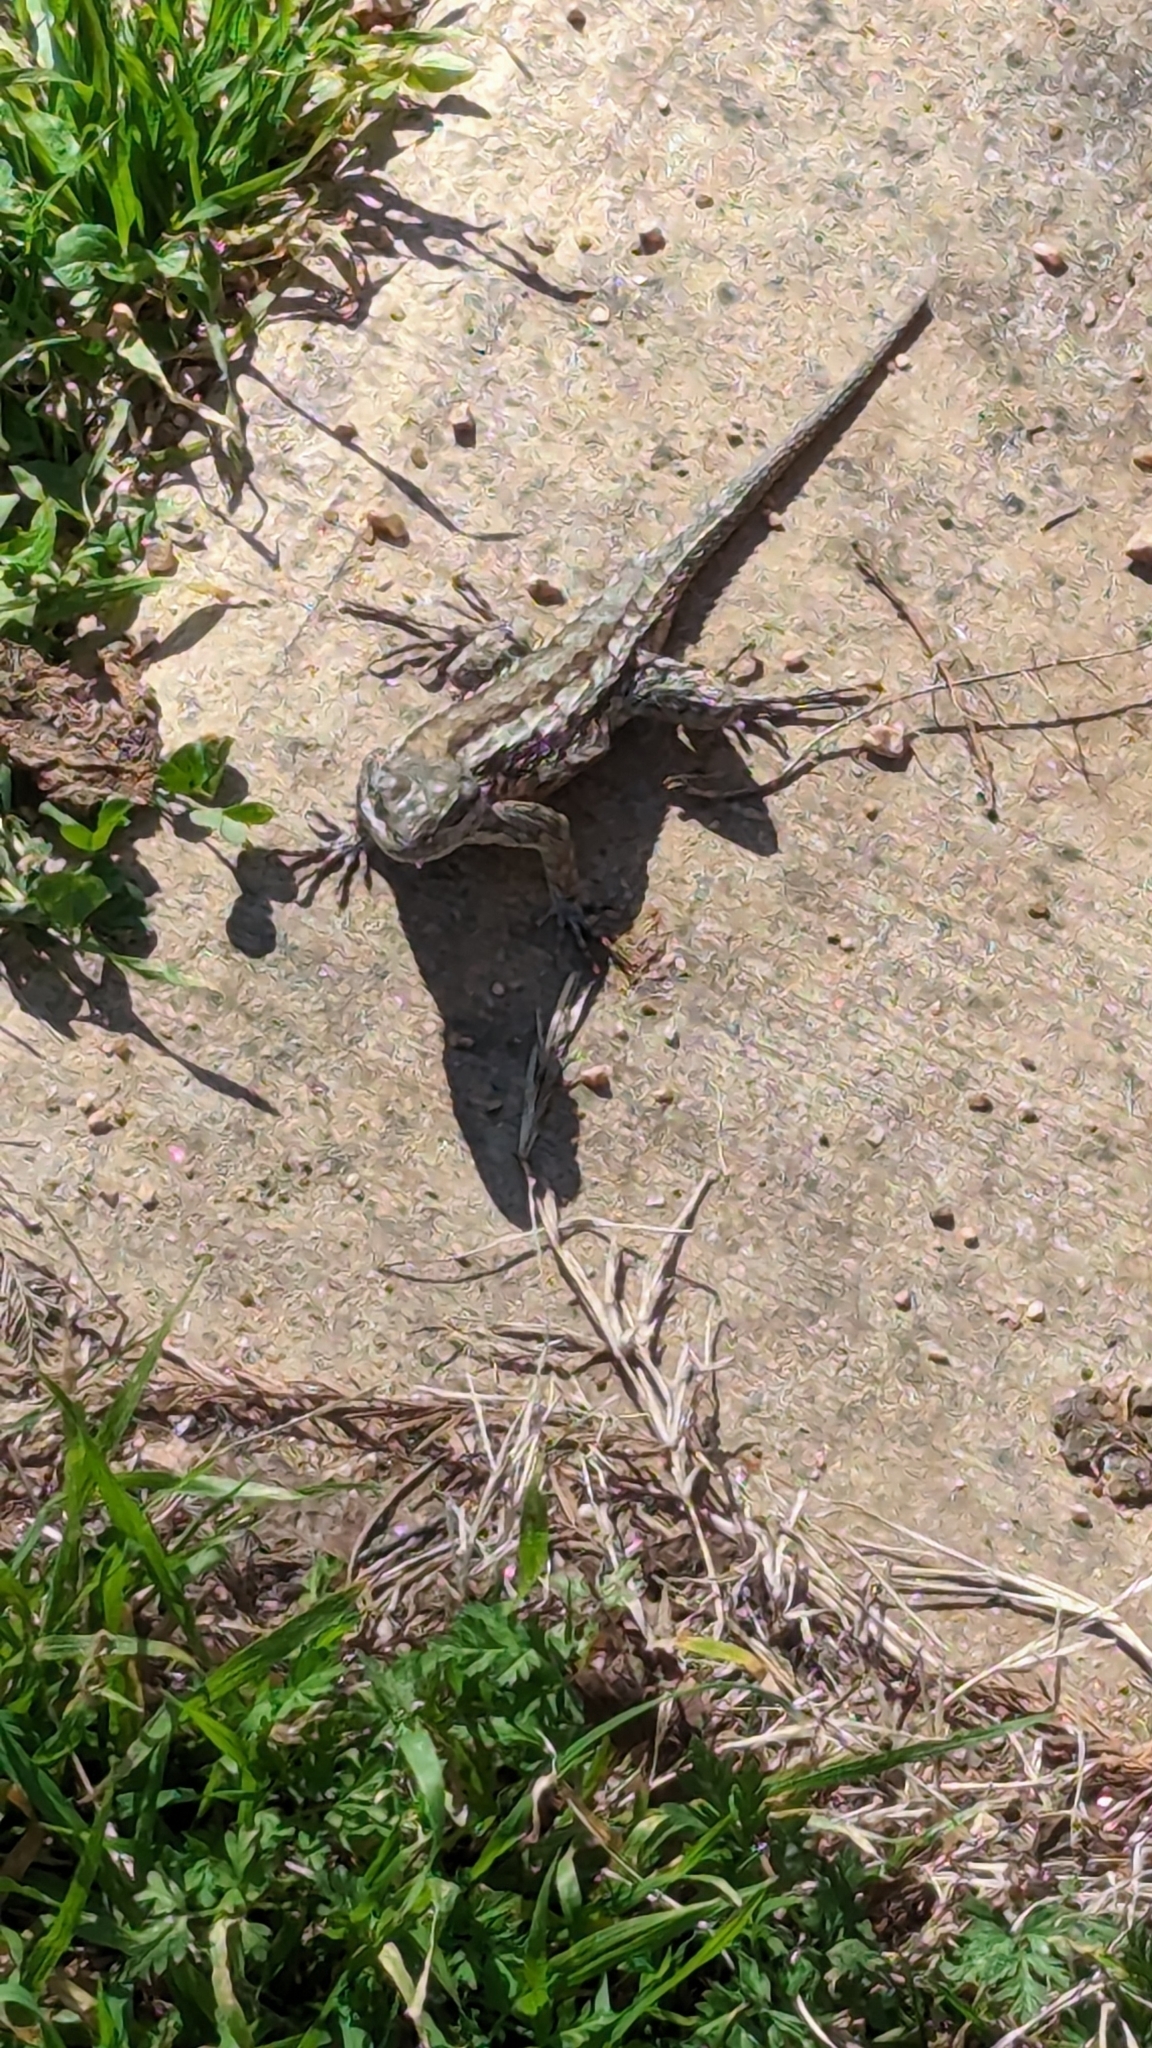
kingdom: Animalia
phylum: Chordata
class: Squamata
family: Phrynosomatidae
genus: Sceloporus
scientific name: Sceloporus olivaceus
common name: Texas spiny lizard
